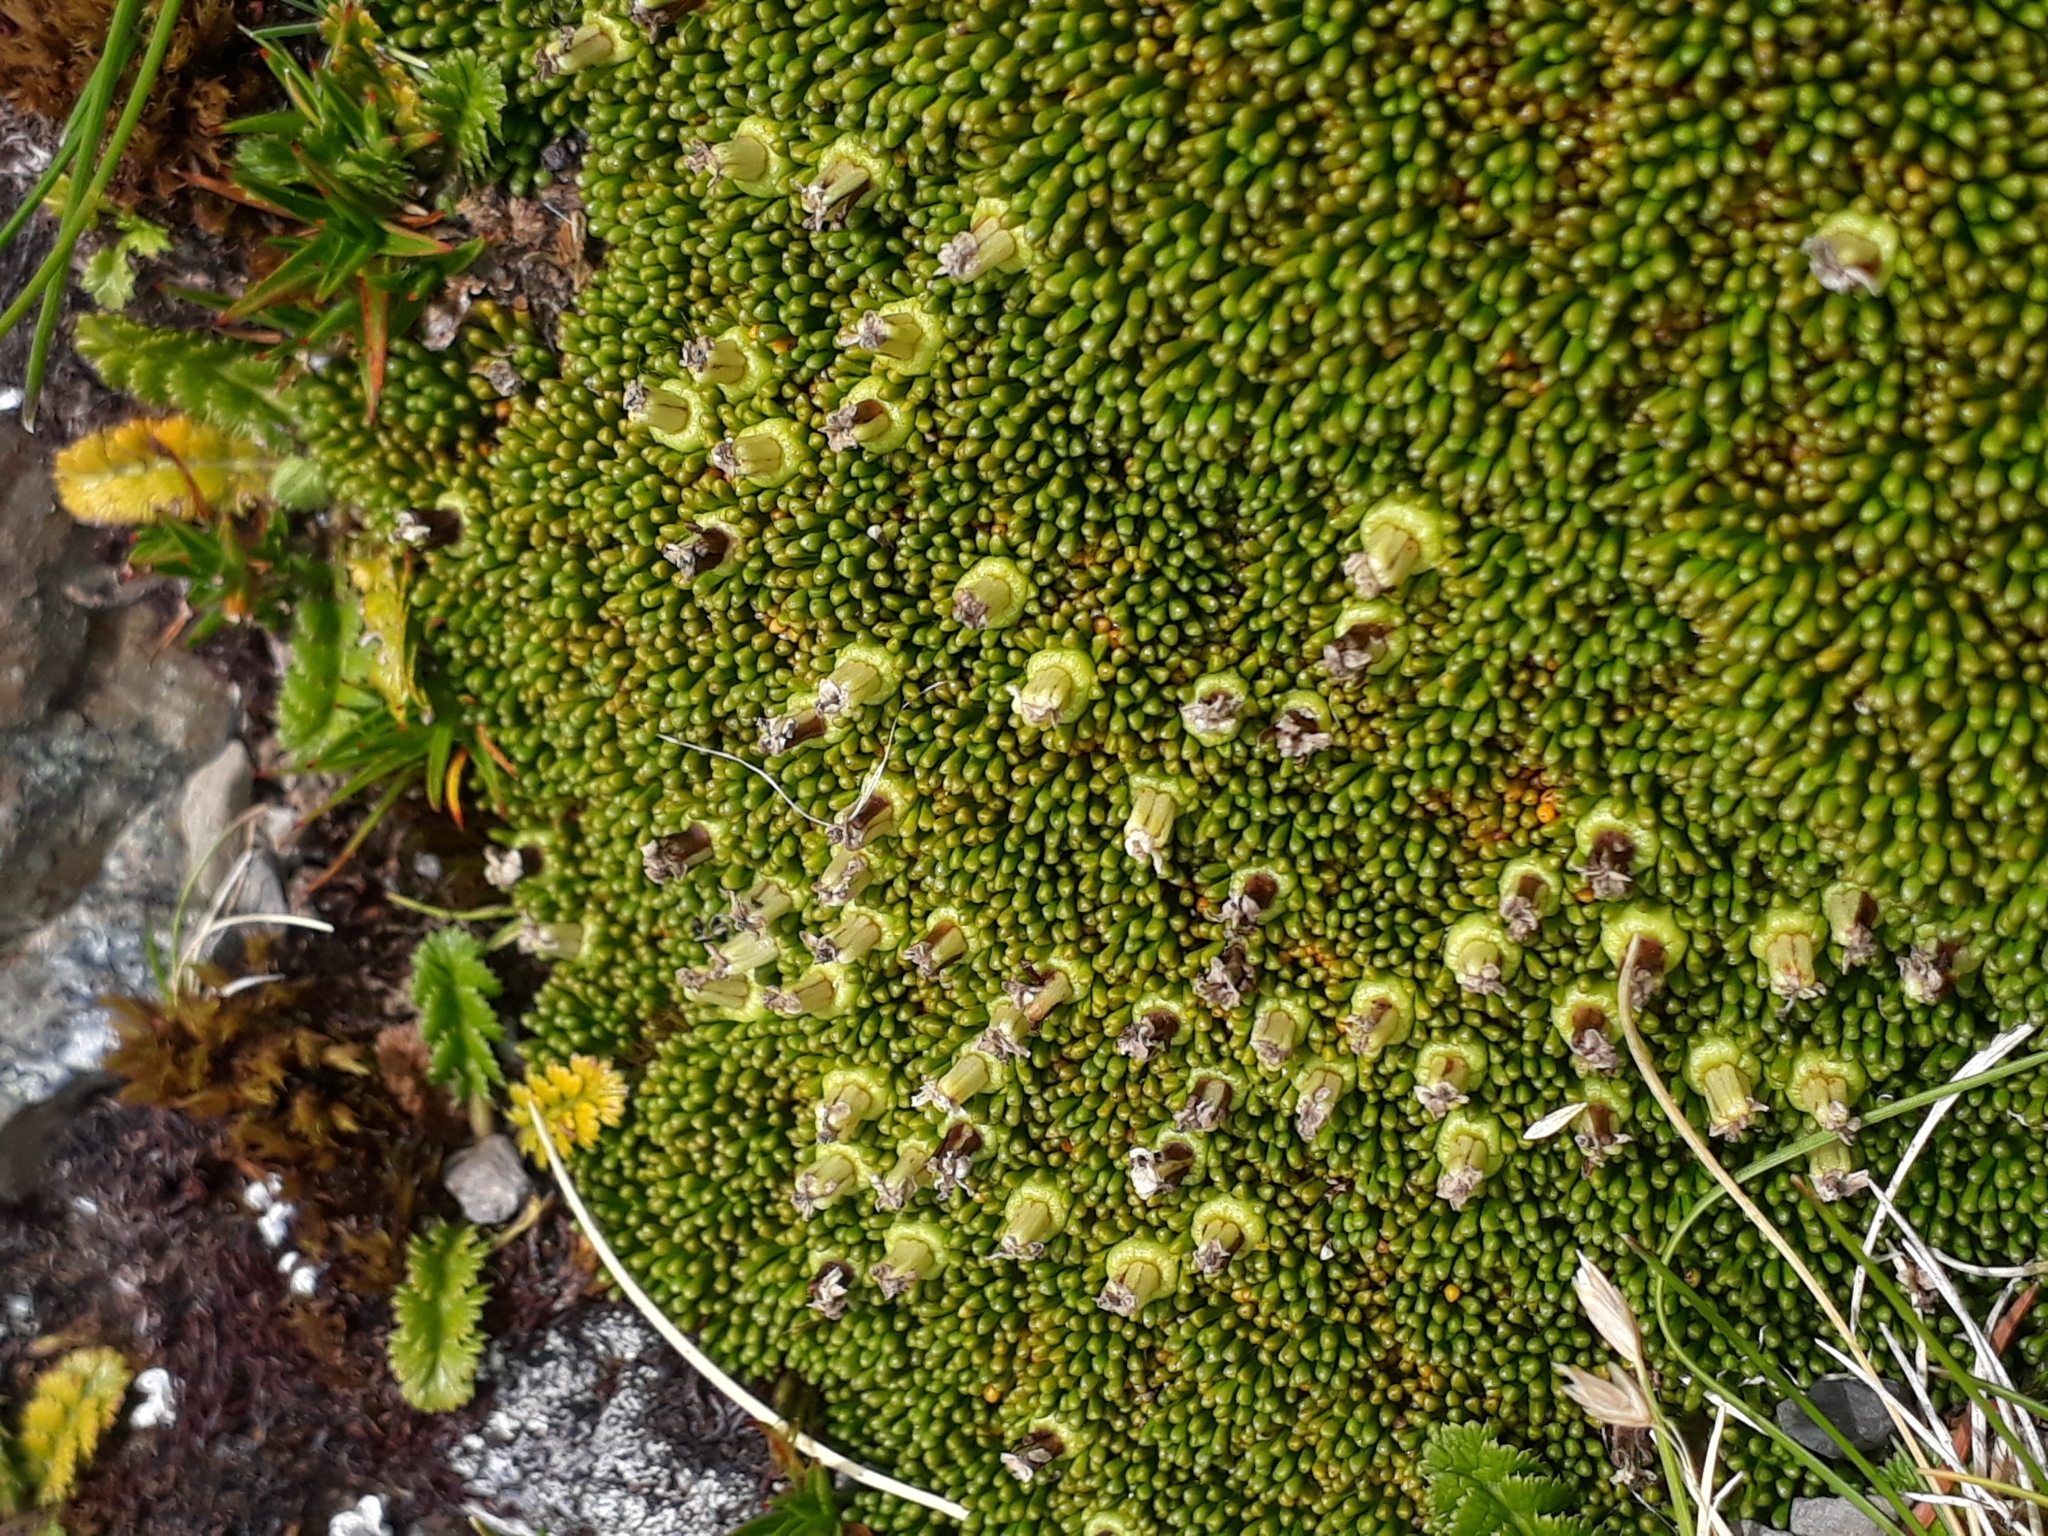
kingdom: Plantae
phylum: Tracheophyta
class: Magnoliopsida
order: Asterales
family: Stylidiaceae
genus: Phyllachne
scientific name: Phyllachne colensoi
